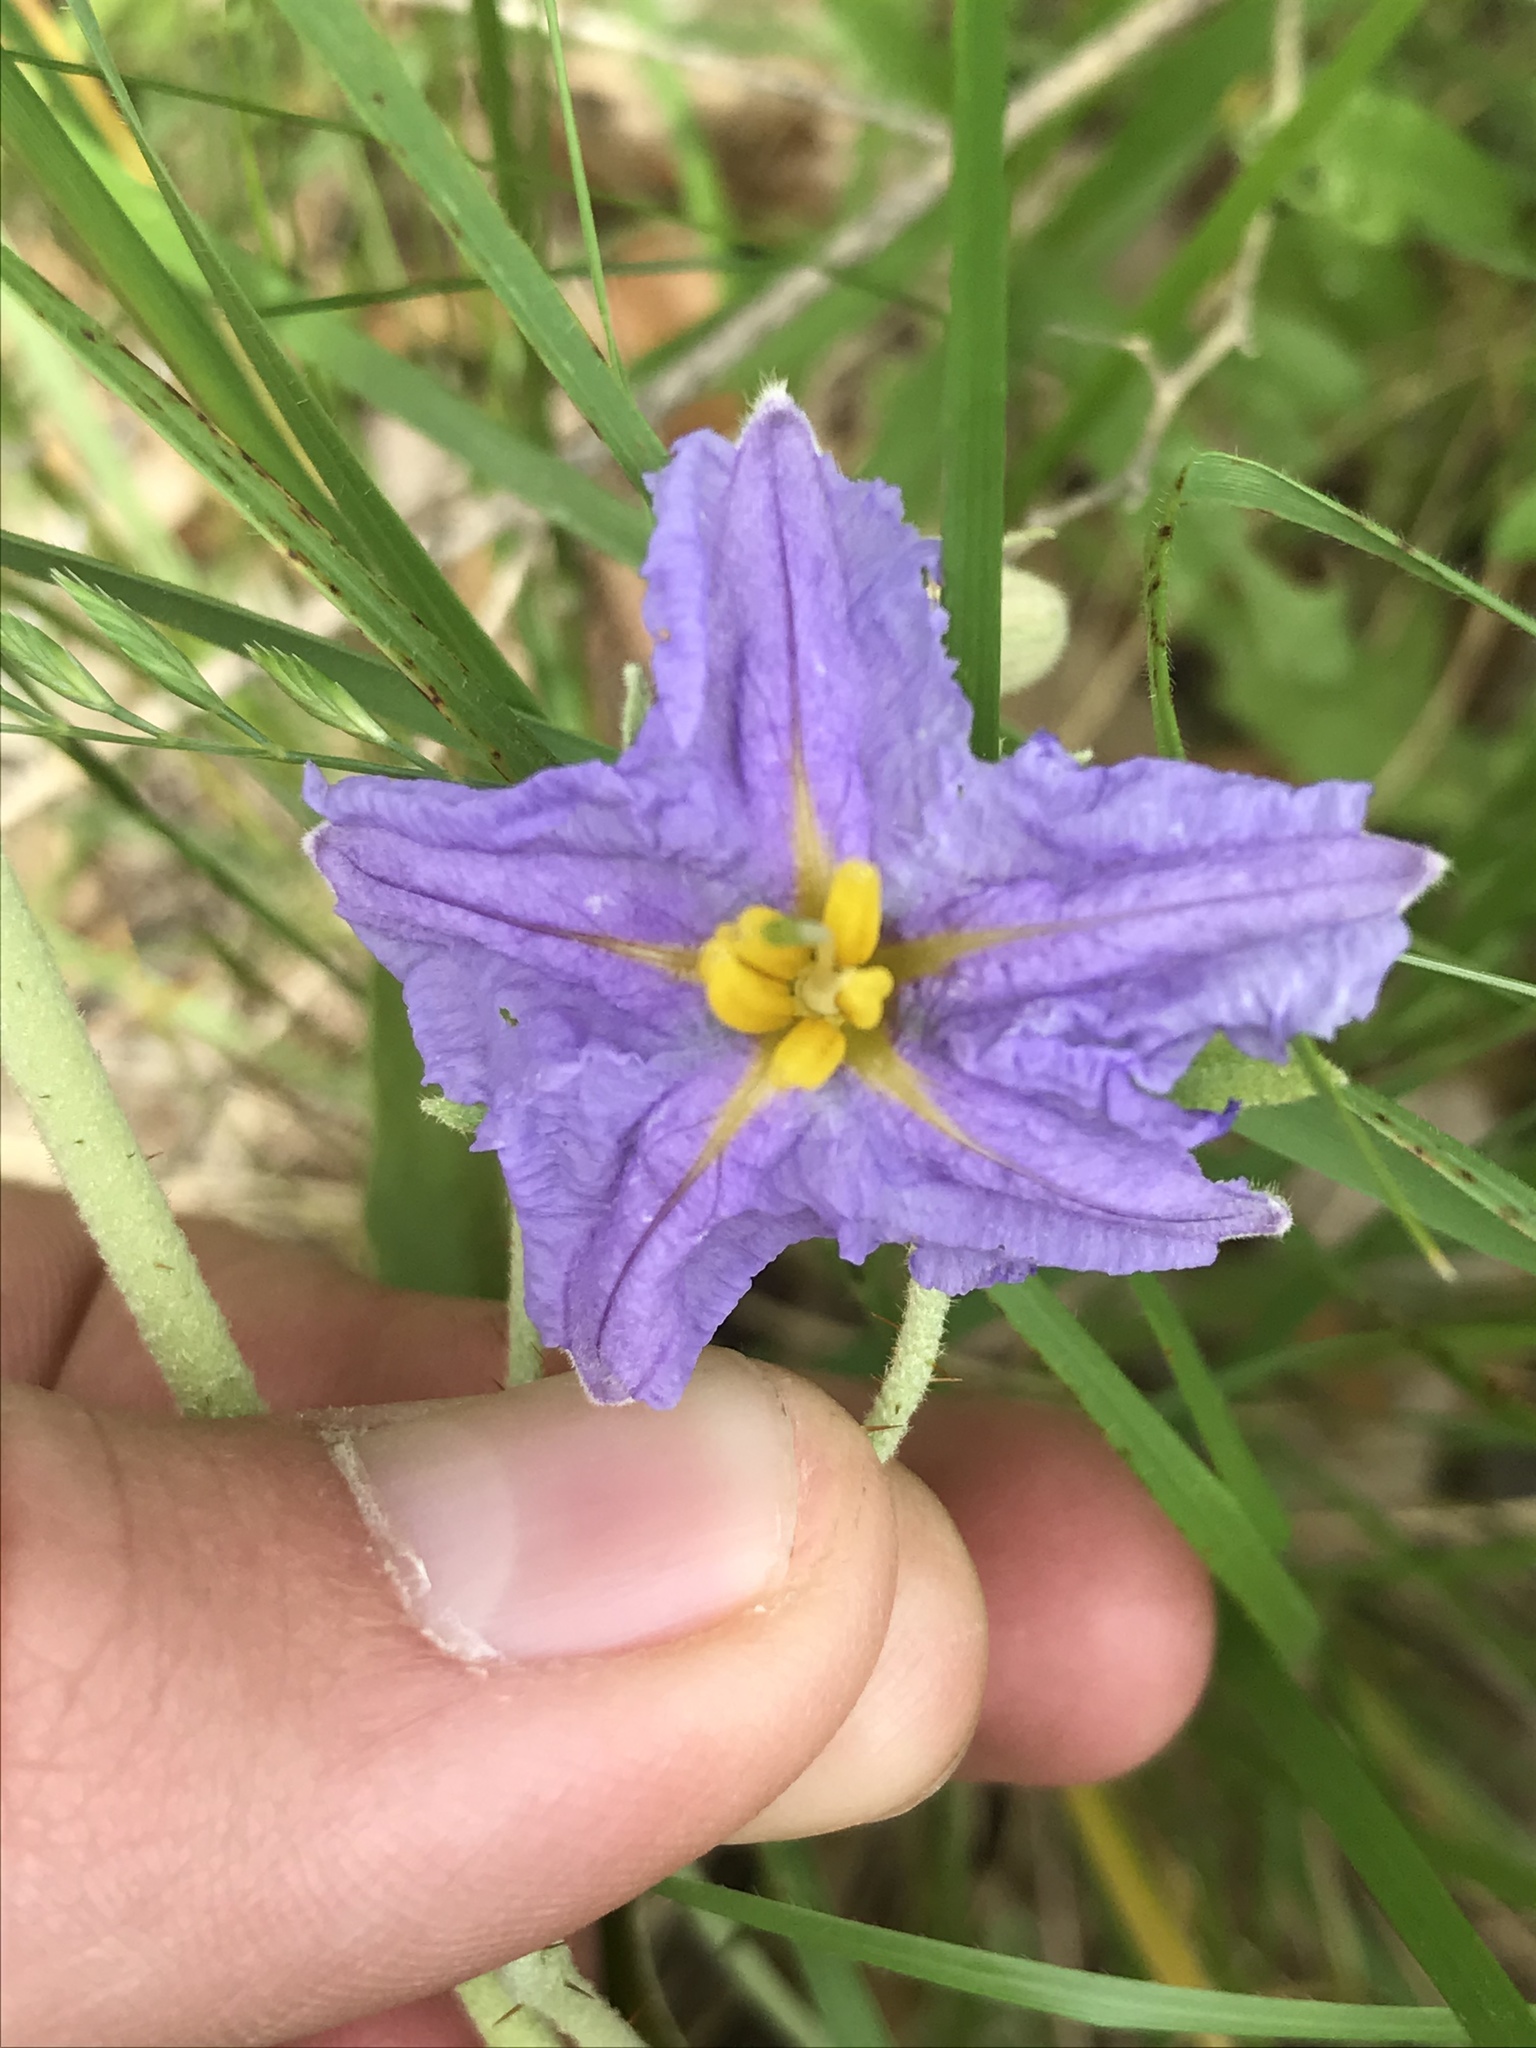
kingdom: Plantae
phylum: Tracheophyta
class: Magnoliopsida
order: Solanales
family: Solanaceae
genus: Solanum
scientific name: Solanum elaeagnifolium
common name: Silverleaf nightshade
